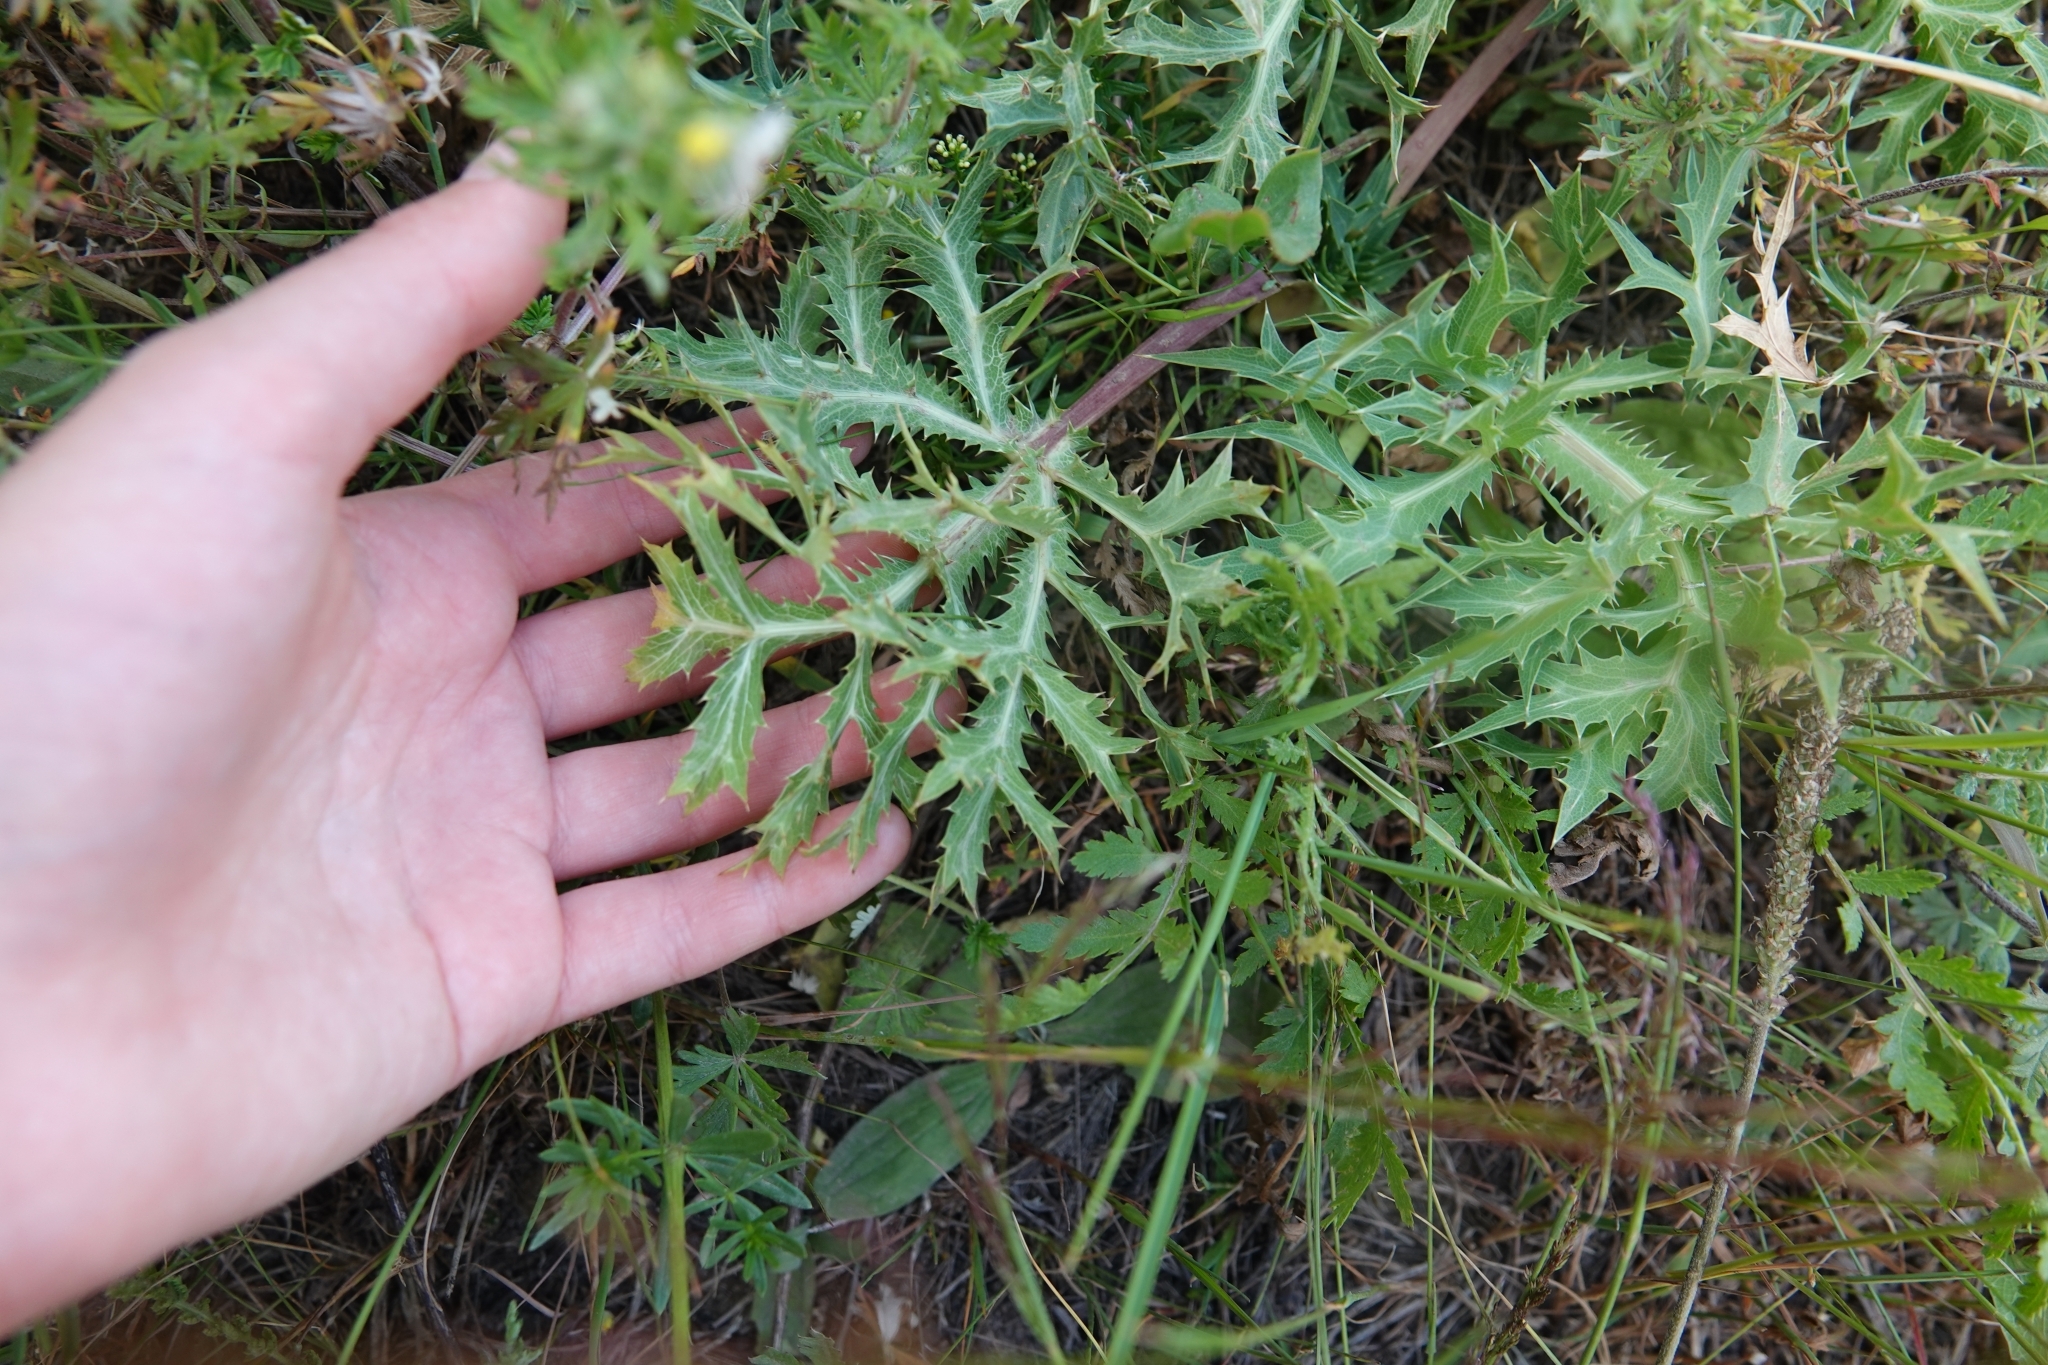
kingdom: Plantae
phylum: Tracheophyta
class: Magnoliopsida
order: Apiales
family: Apiaceae
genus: Eryngium
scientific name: Eryngium campestre
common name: Field eryngo
